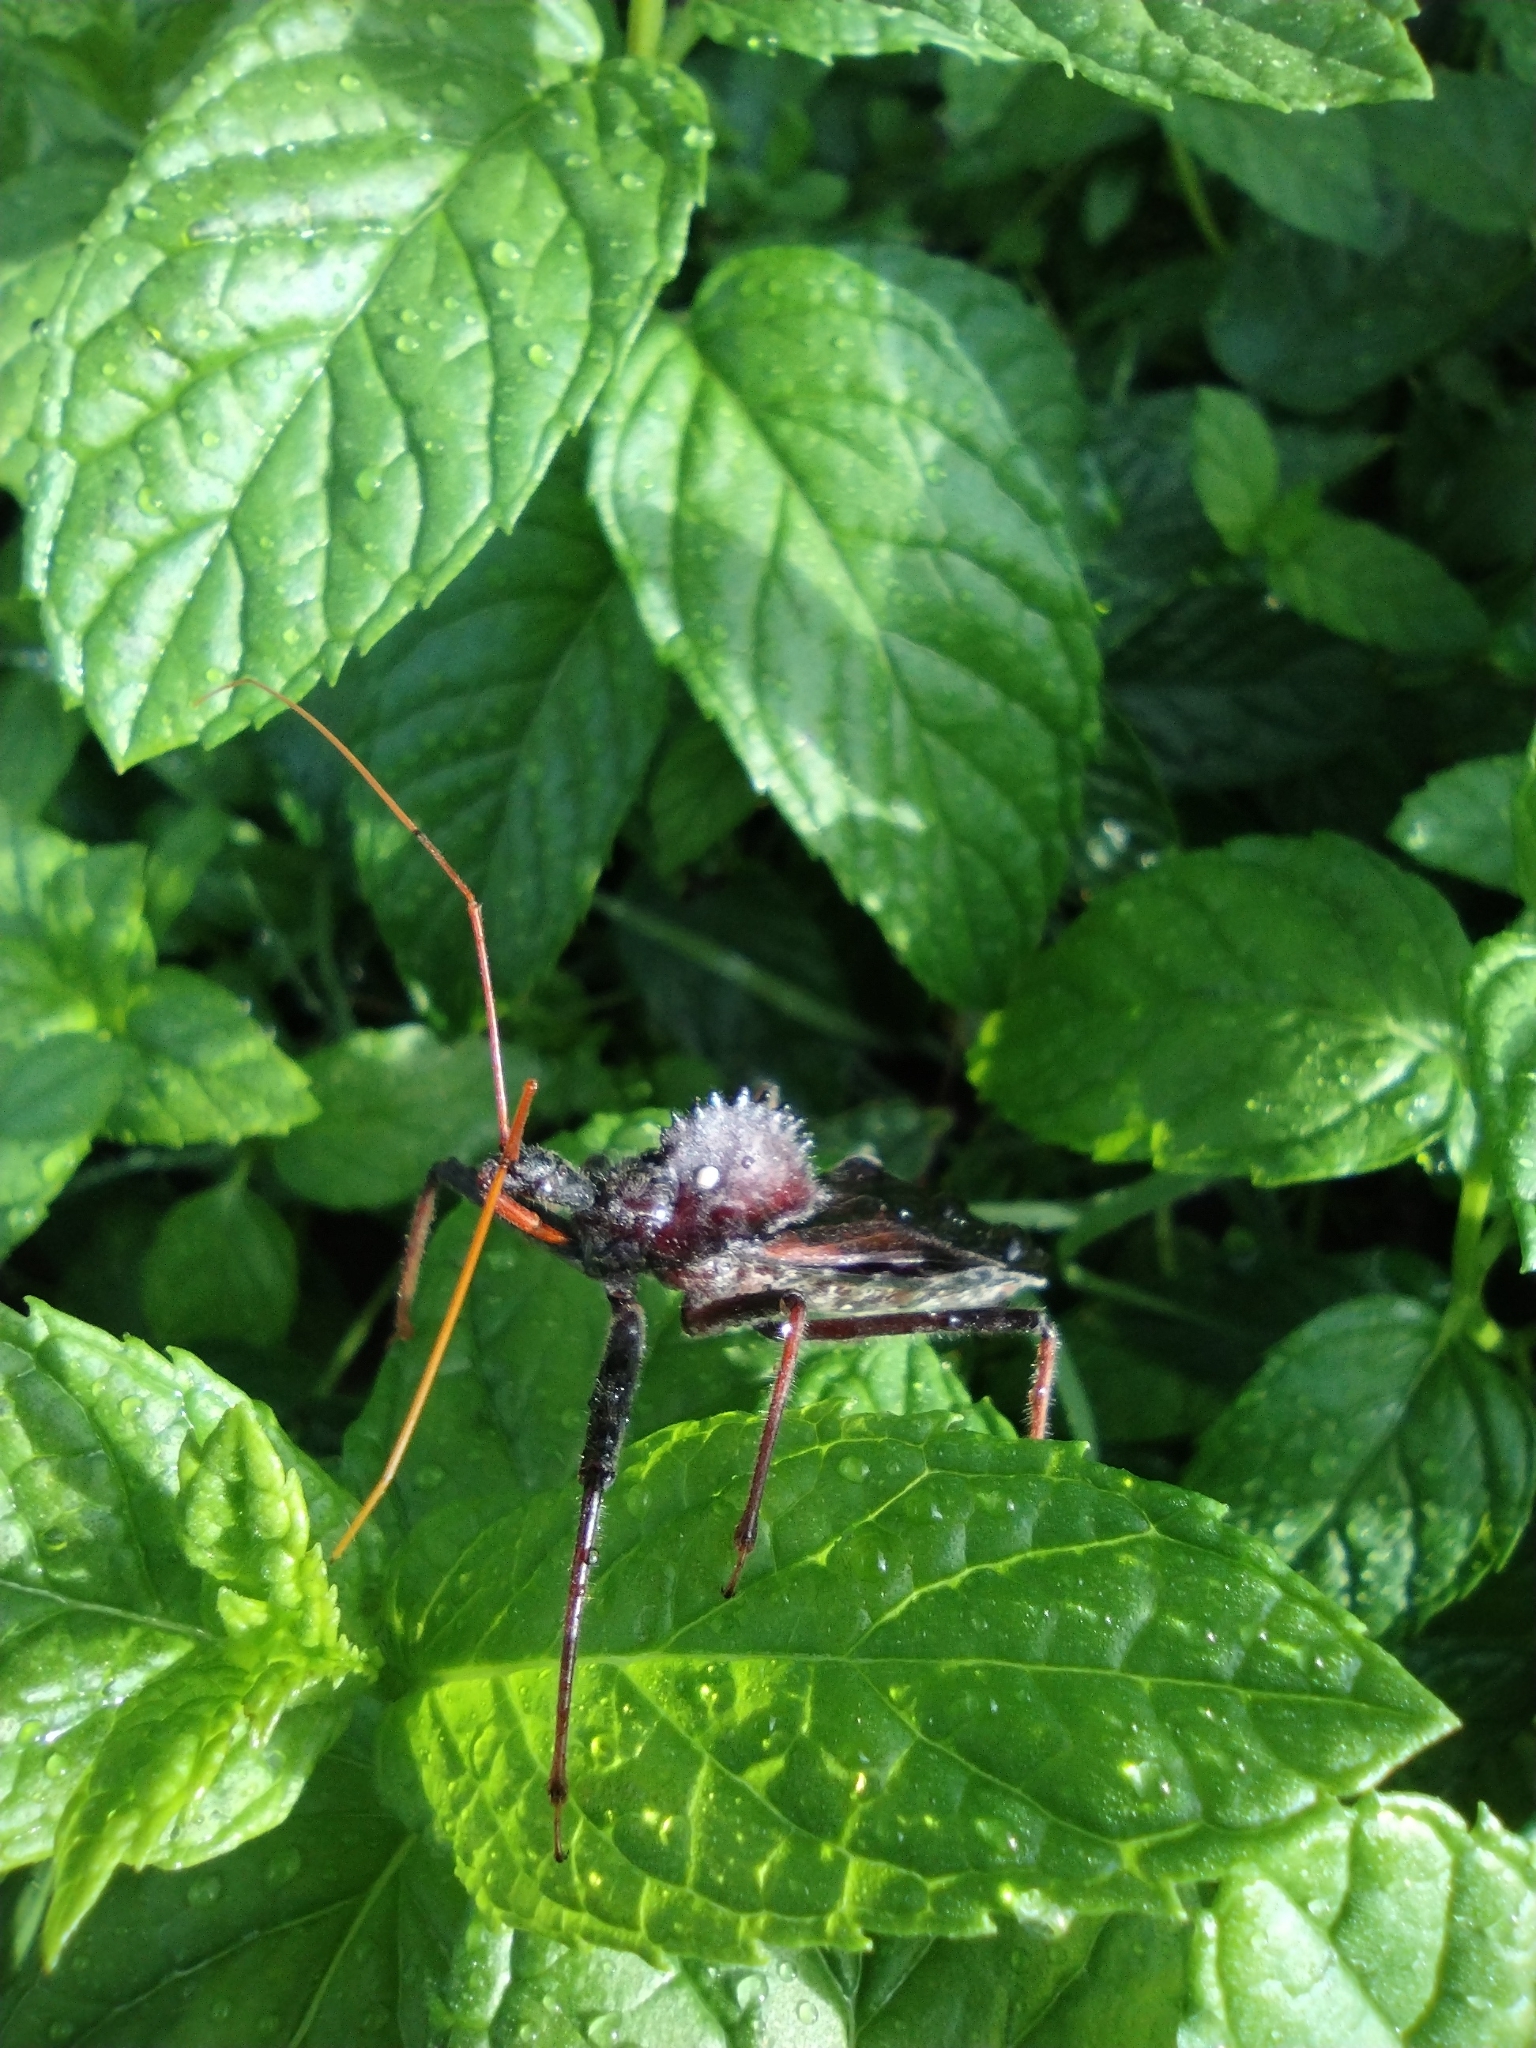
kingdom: Animalia
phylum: Arthropoda
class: Insecta
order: Hemiptera
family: Reduviidae
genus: Arilus
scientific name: Arilus cristatus
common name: North american wheel bug
